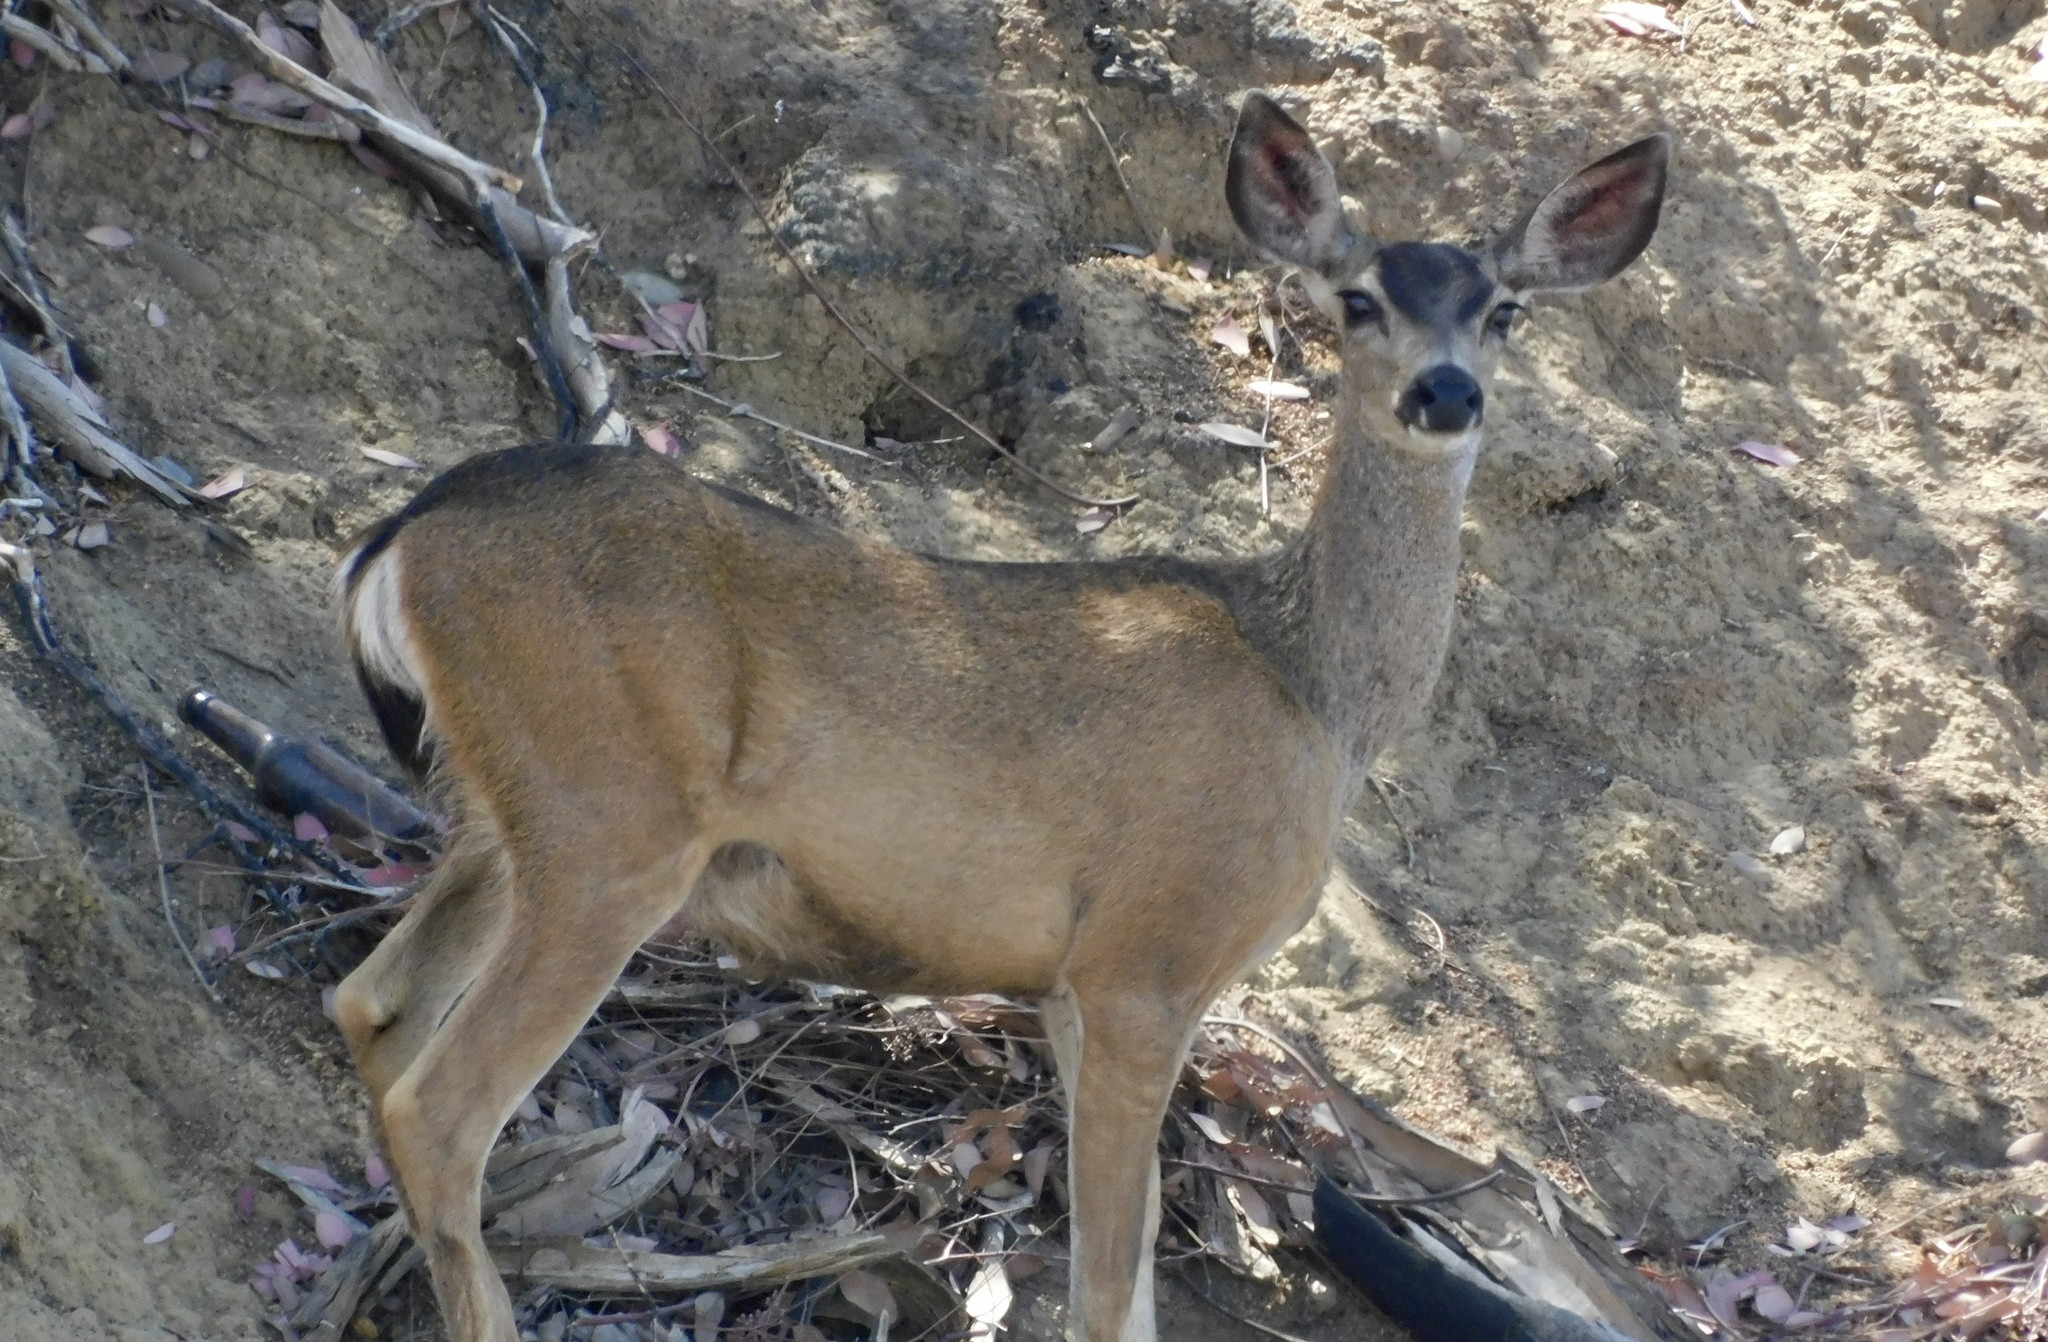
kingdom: Animalia
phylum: Chordata
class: Mammalia
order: Artiodactyla
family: Cervidae
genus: Odocoileus
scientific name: Odocoileus hemionus
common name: Mule deer
